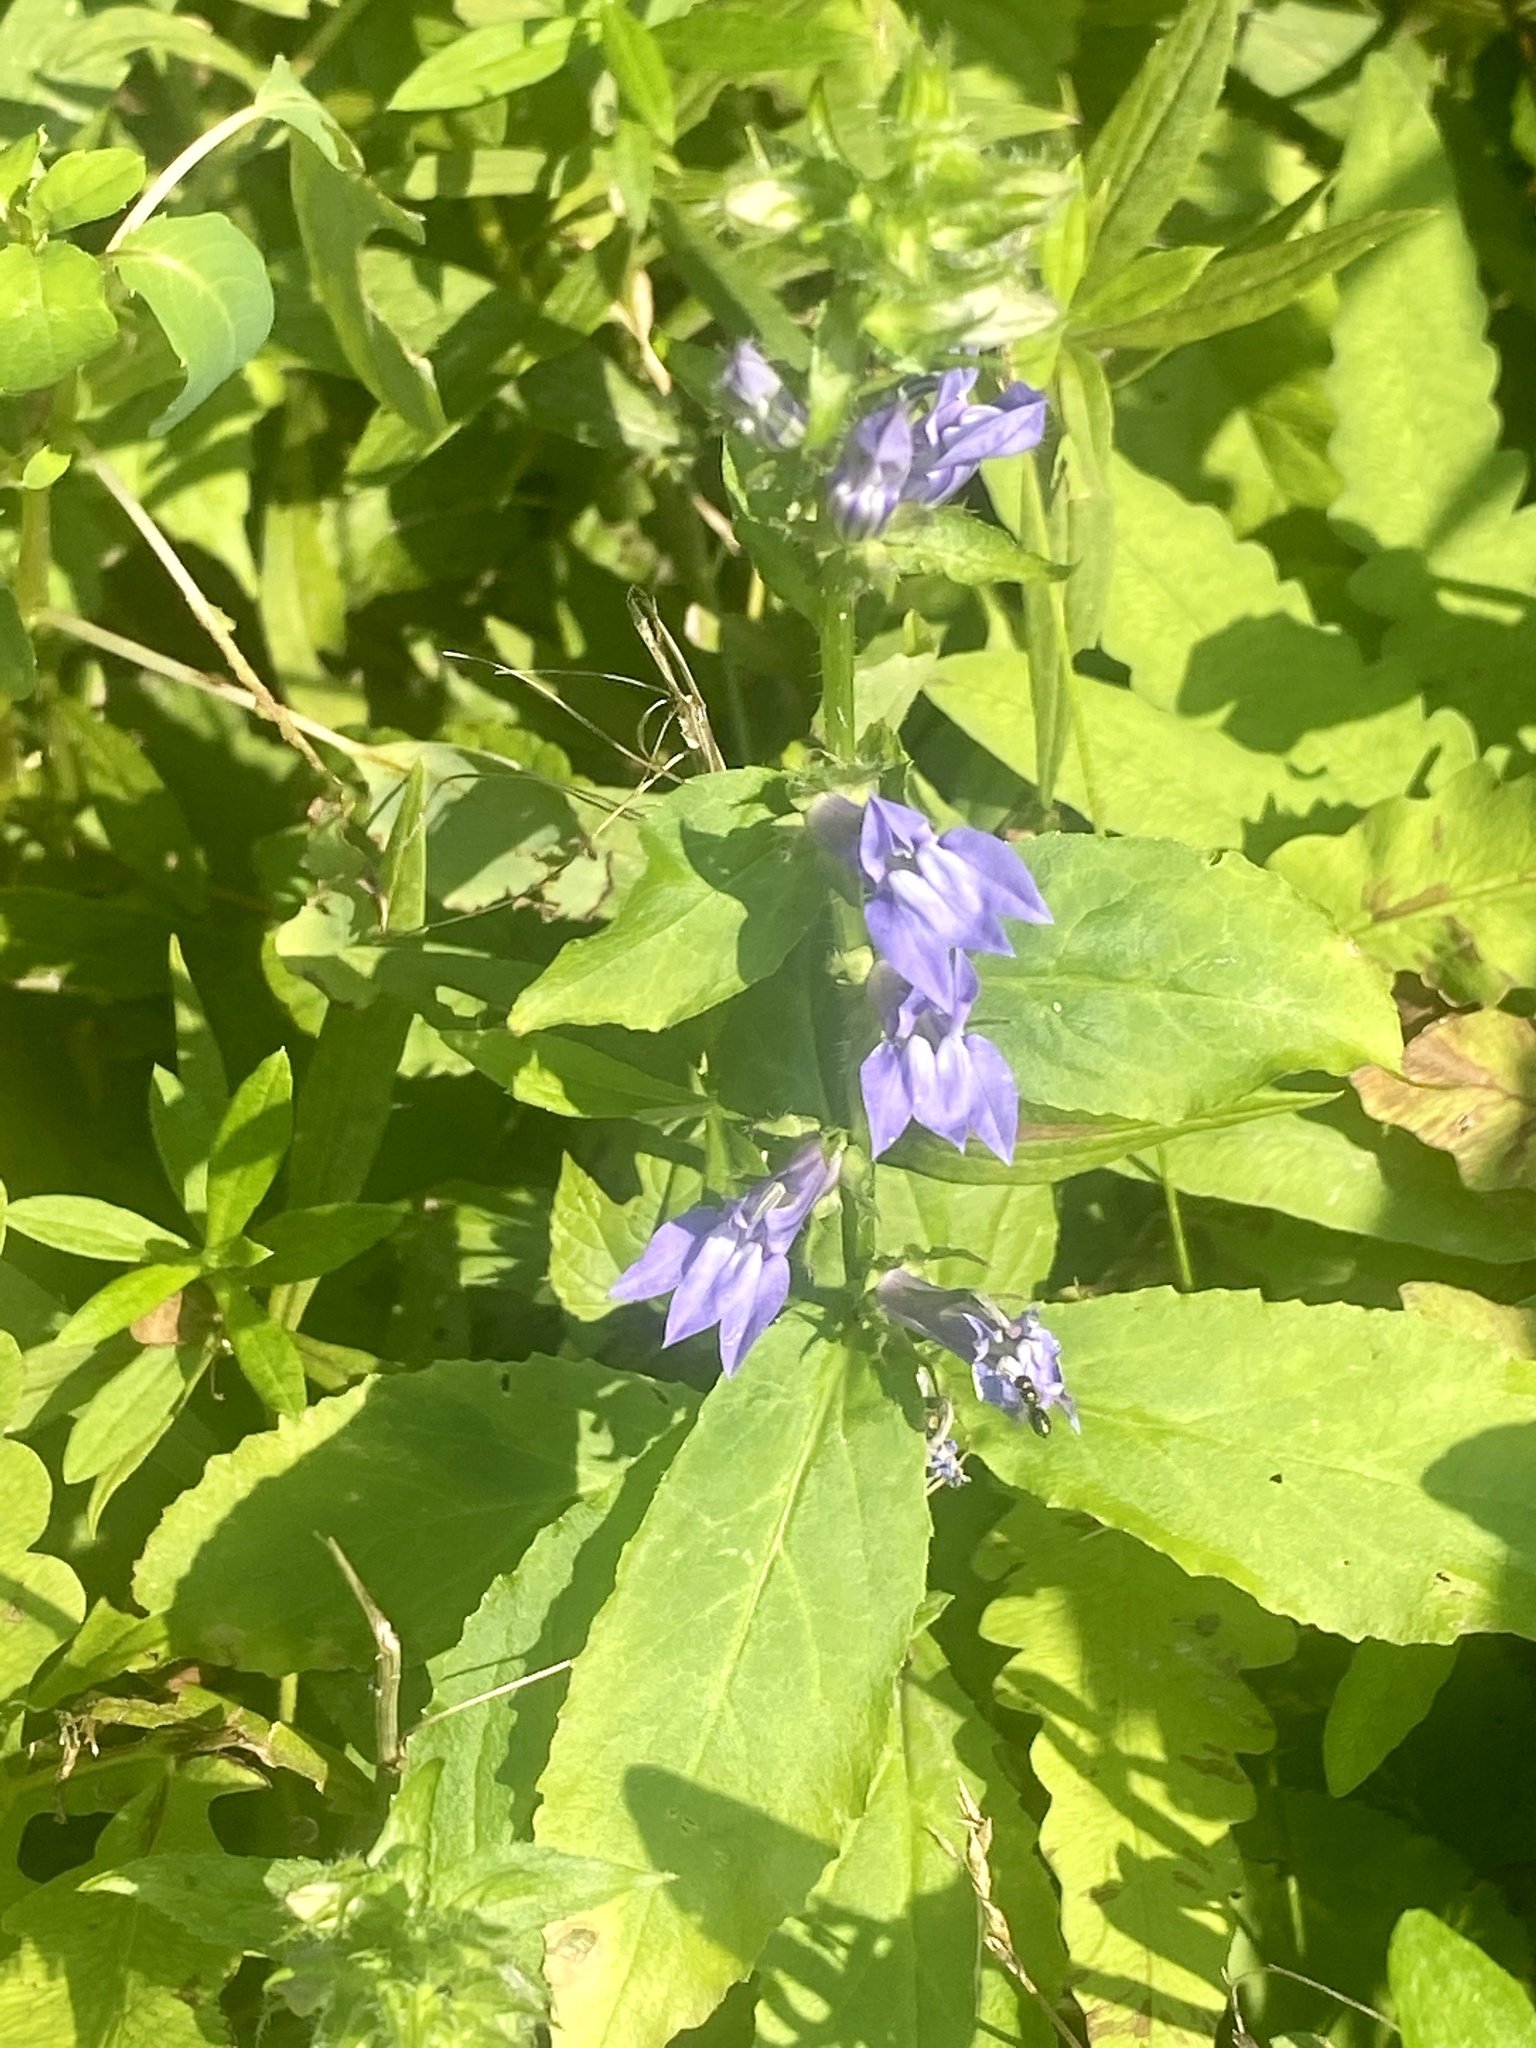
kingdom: Plantae
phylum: Tracheophyta
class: Magnoliopsida
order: Asterales
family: Campanulaceae
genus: Lobelia
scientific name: Lobelia siphilitica
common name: Great lobelia
